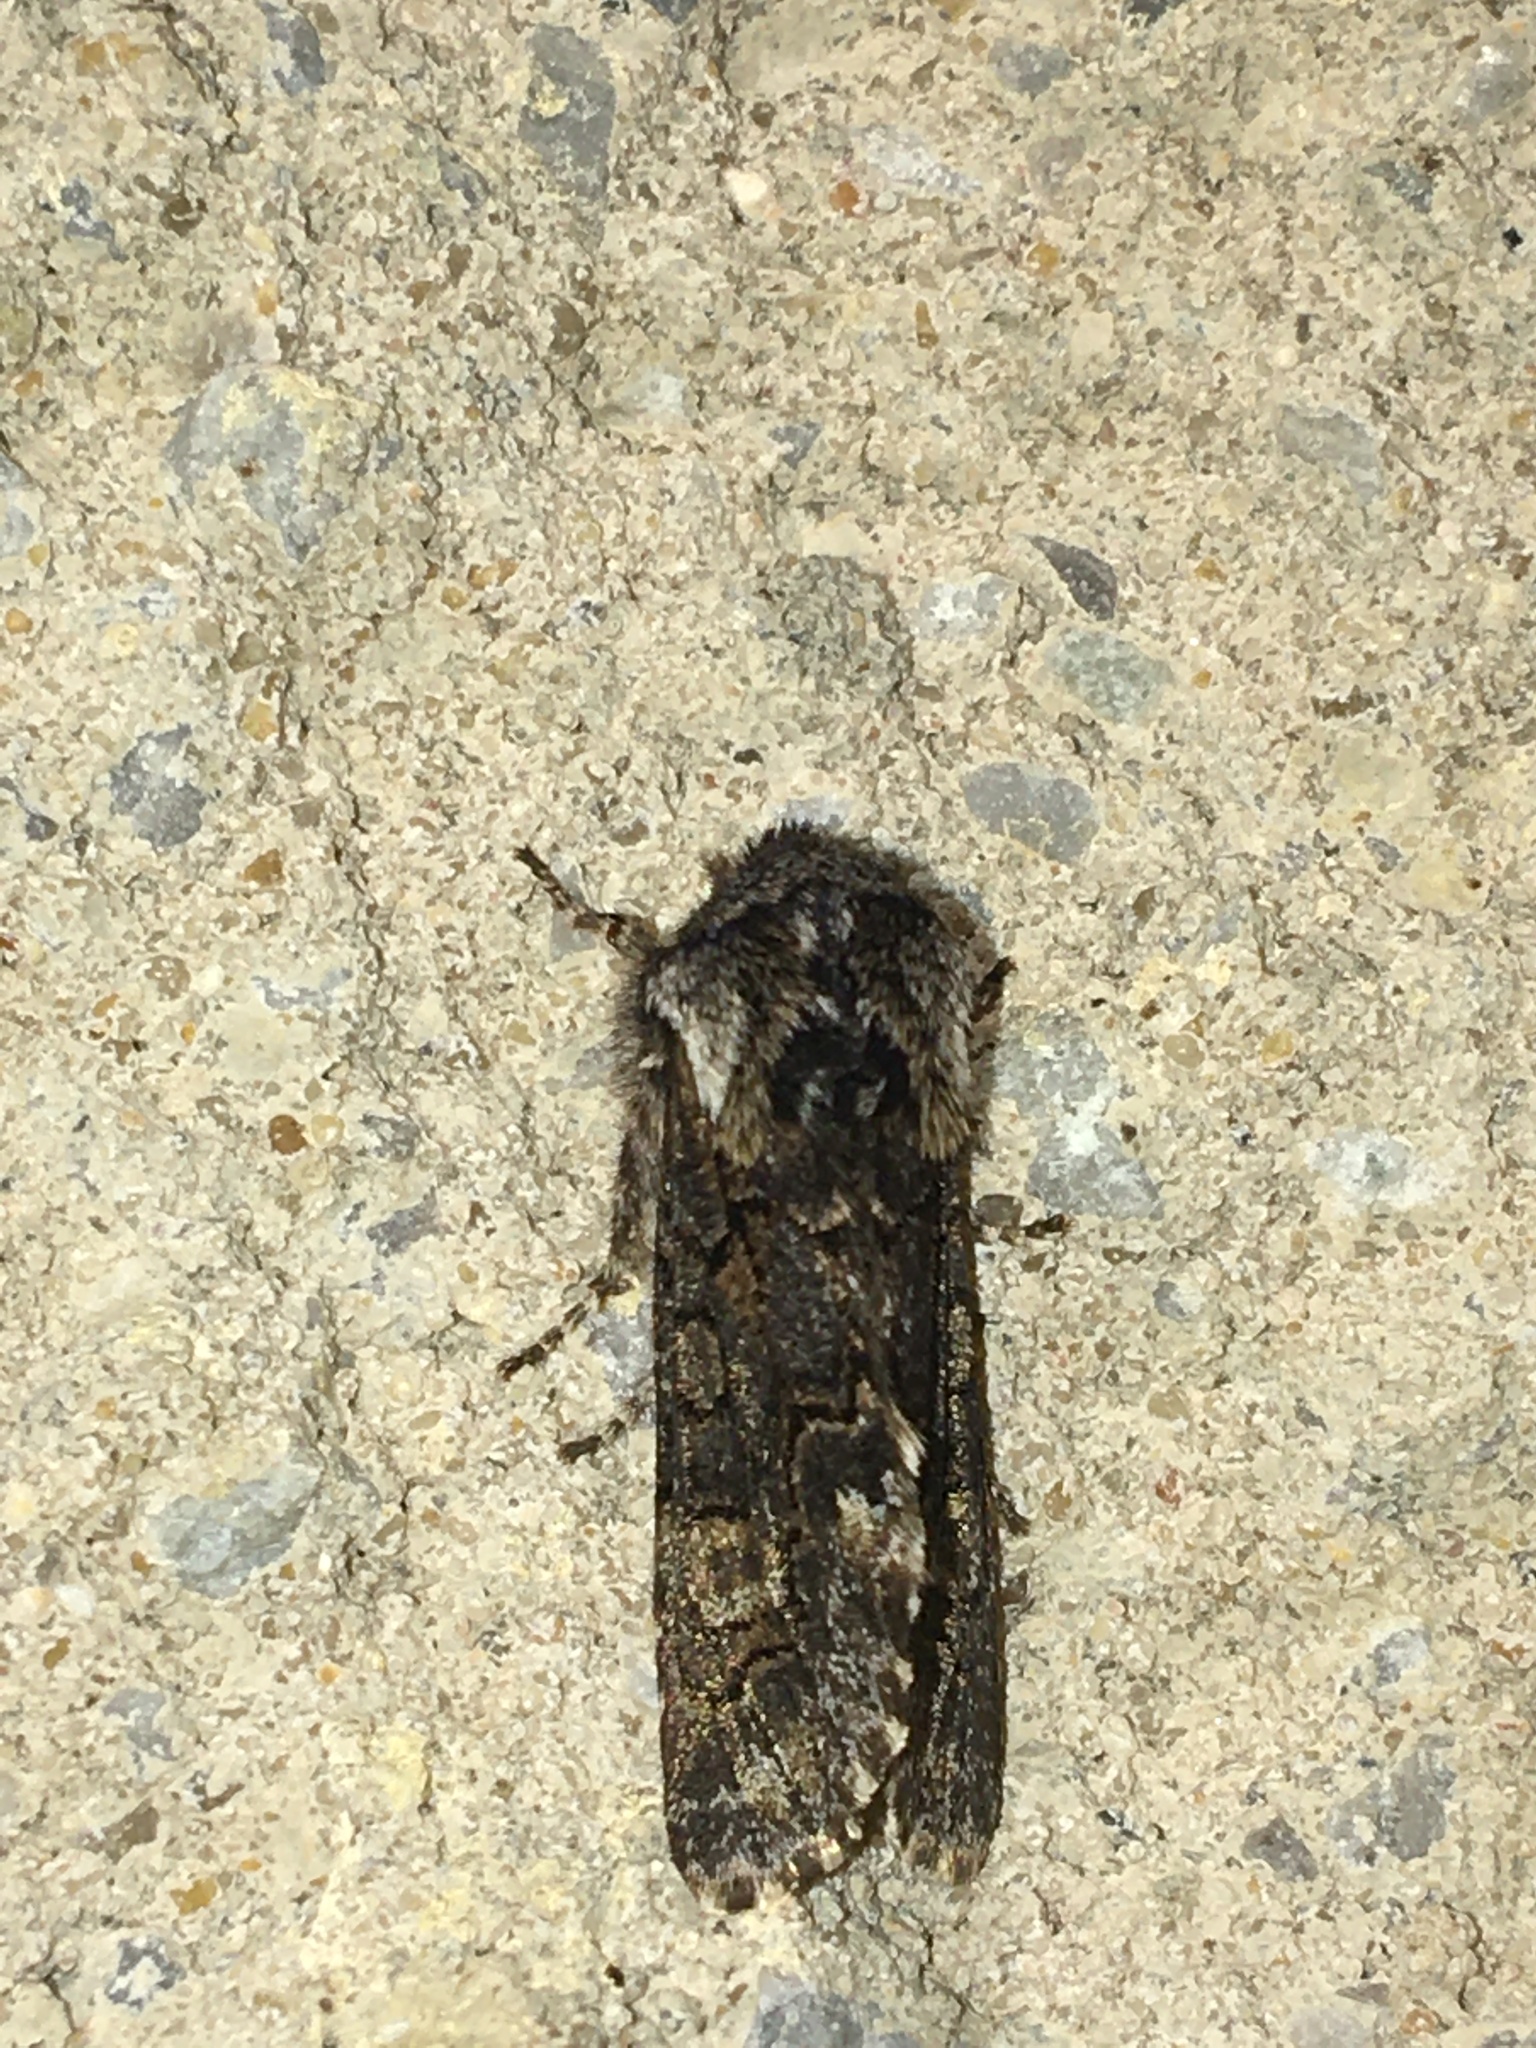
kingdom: Animalia
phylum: Arthropoda
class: Insecta
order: Lepidoptera
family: Noctuidae
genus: Psaphida
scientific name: Psaphida thaxterianus
